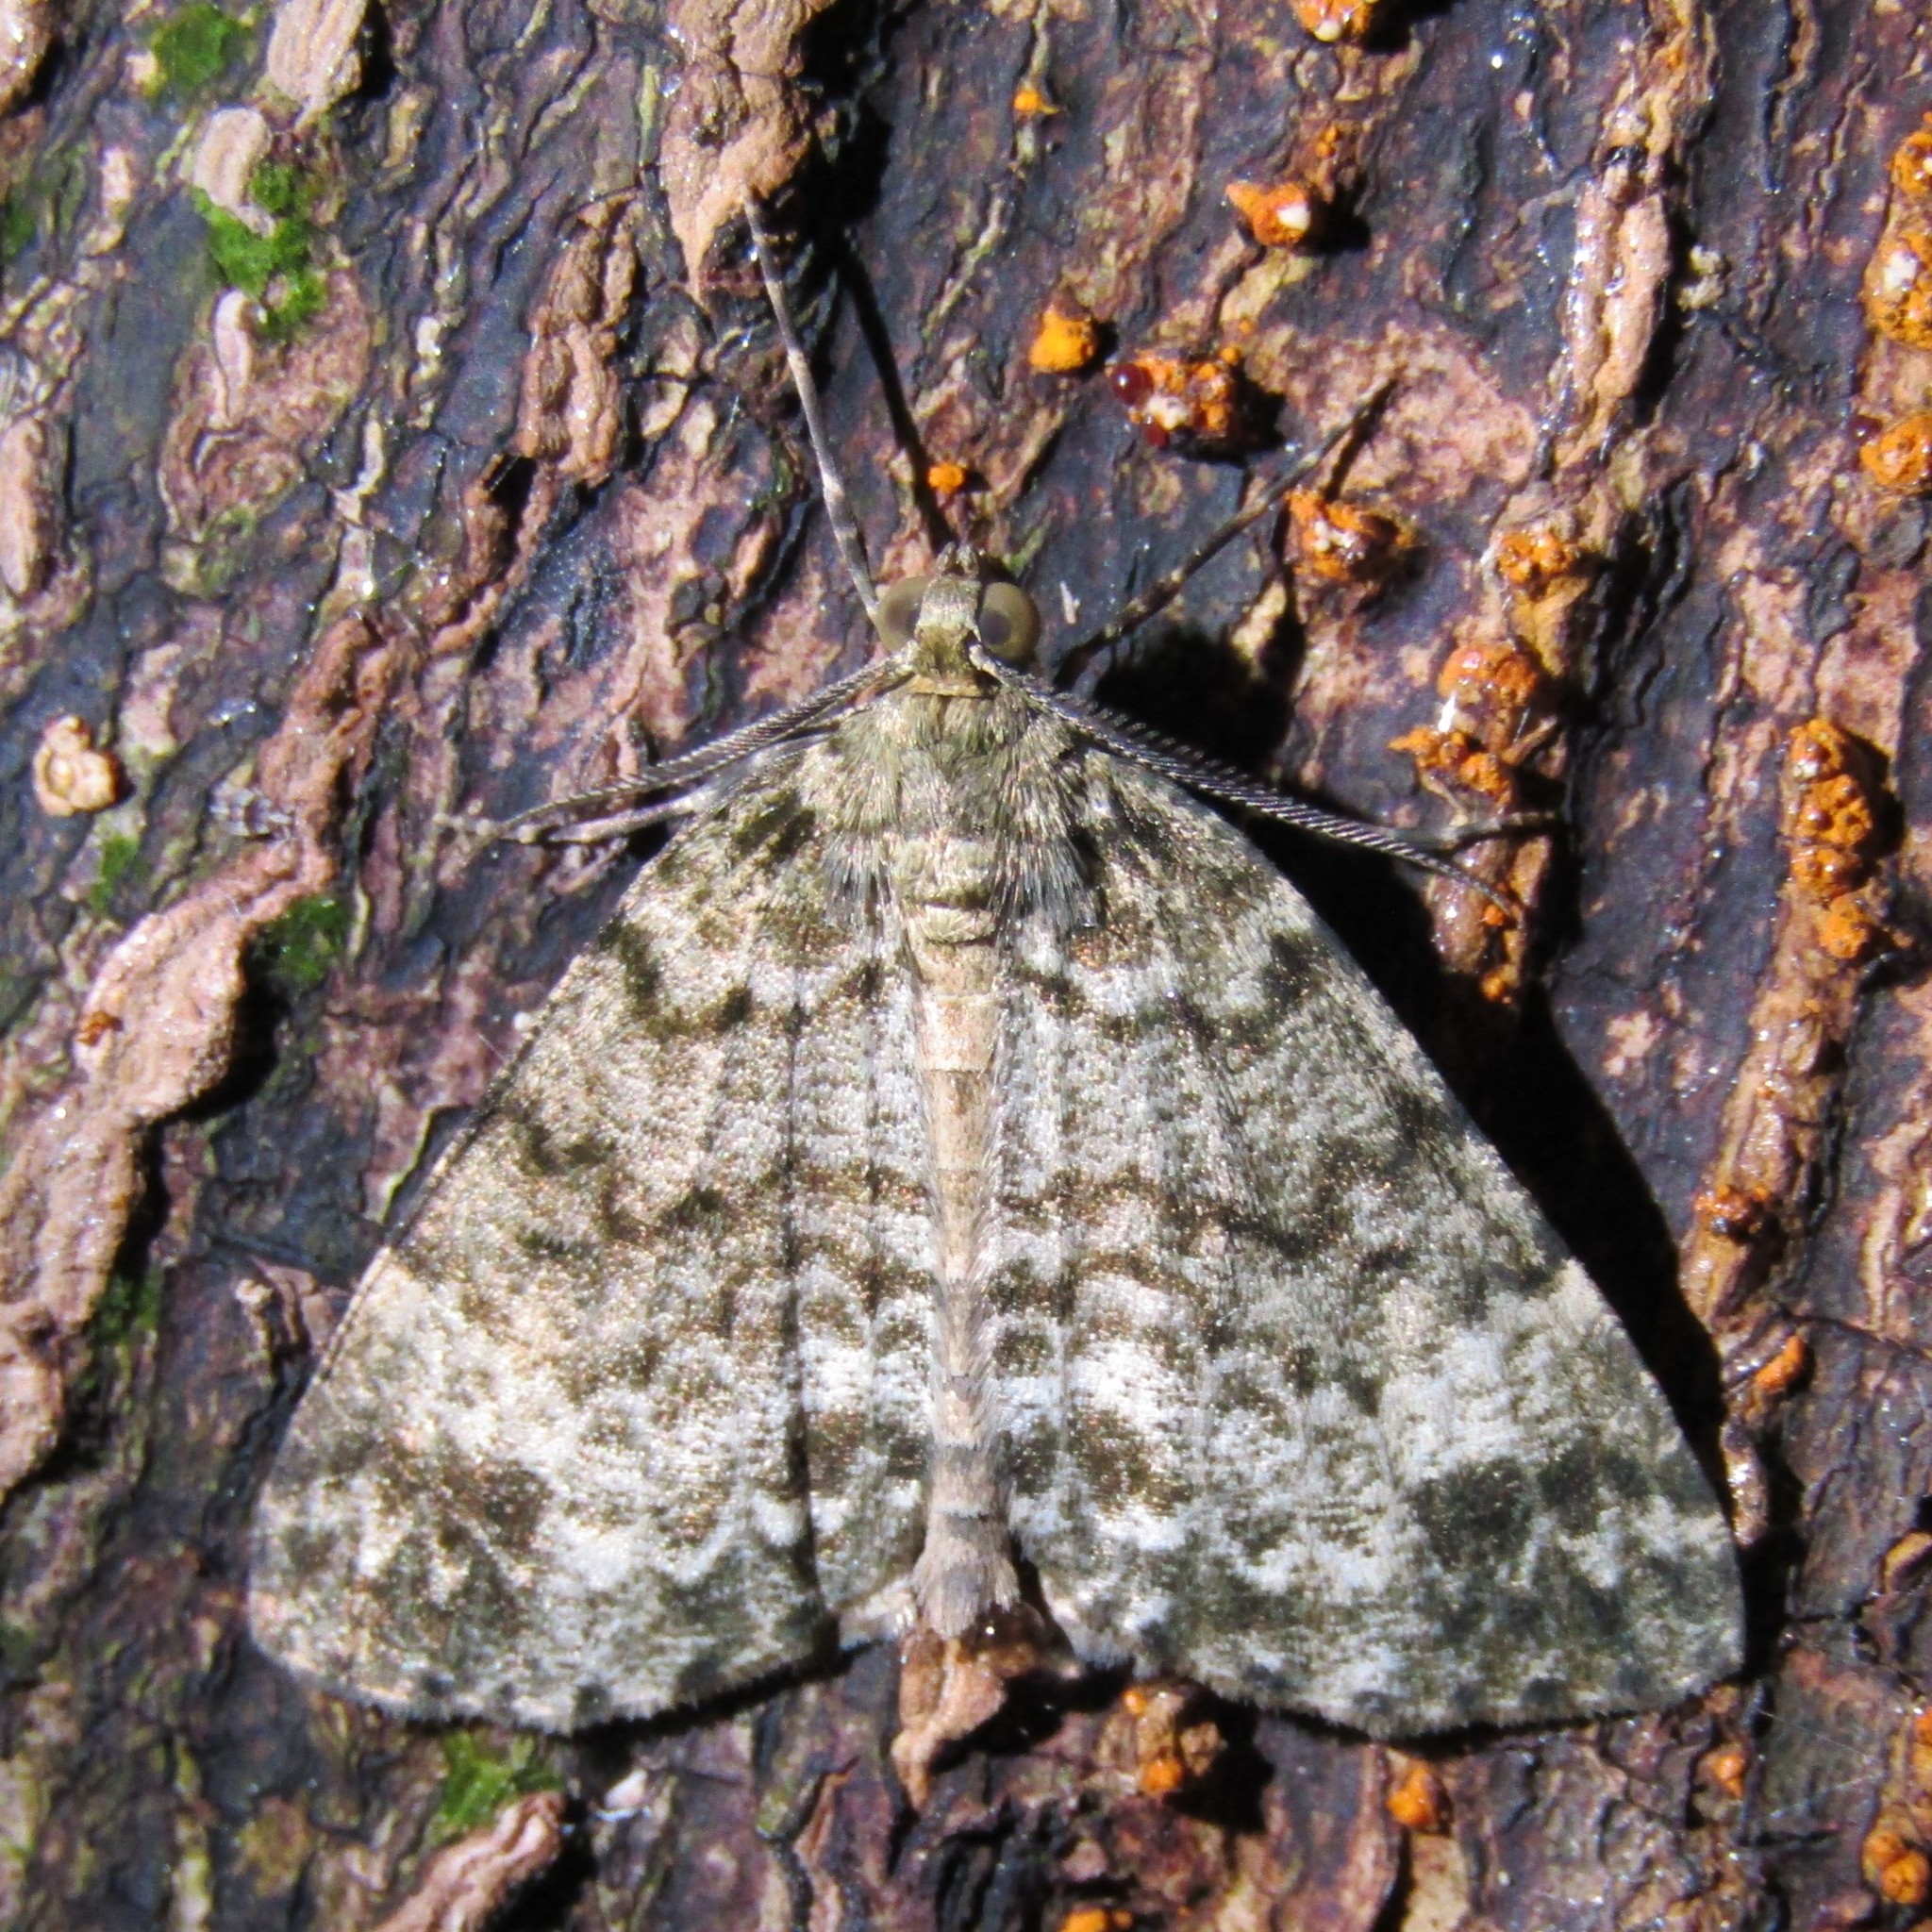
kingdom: Animalia
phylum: Arthropoda
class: Insecta
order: Lepidoptera
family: Geometridae
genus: Pseudocoremia
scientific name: Pseudocoremia indistincta
